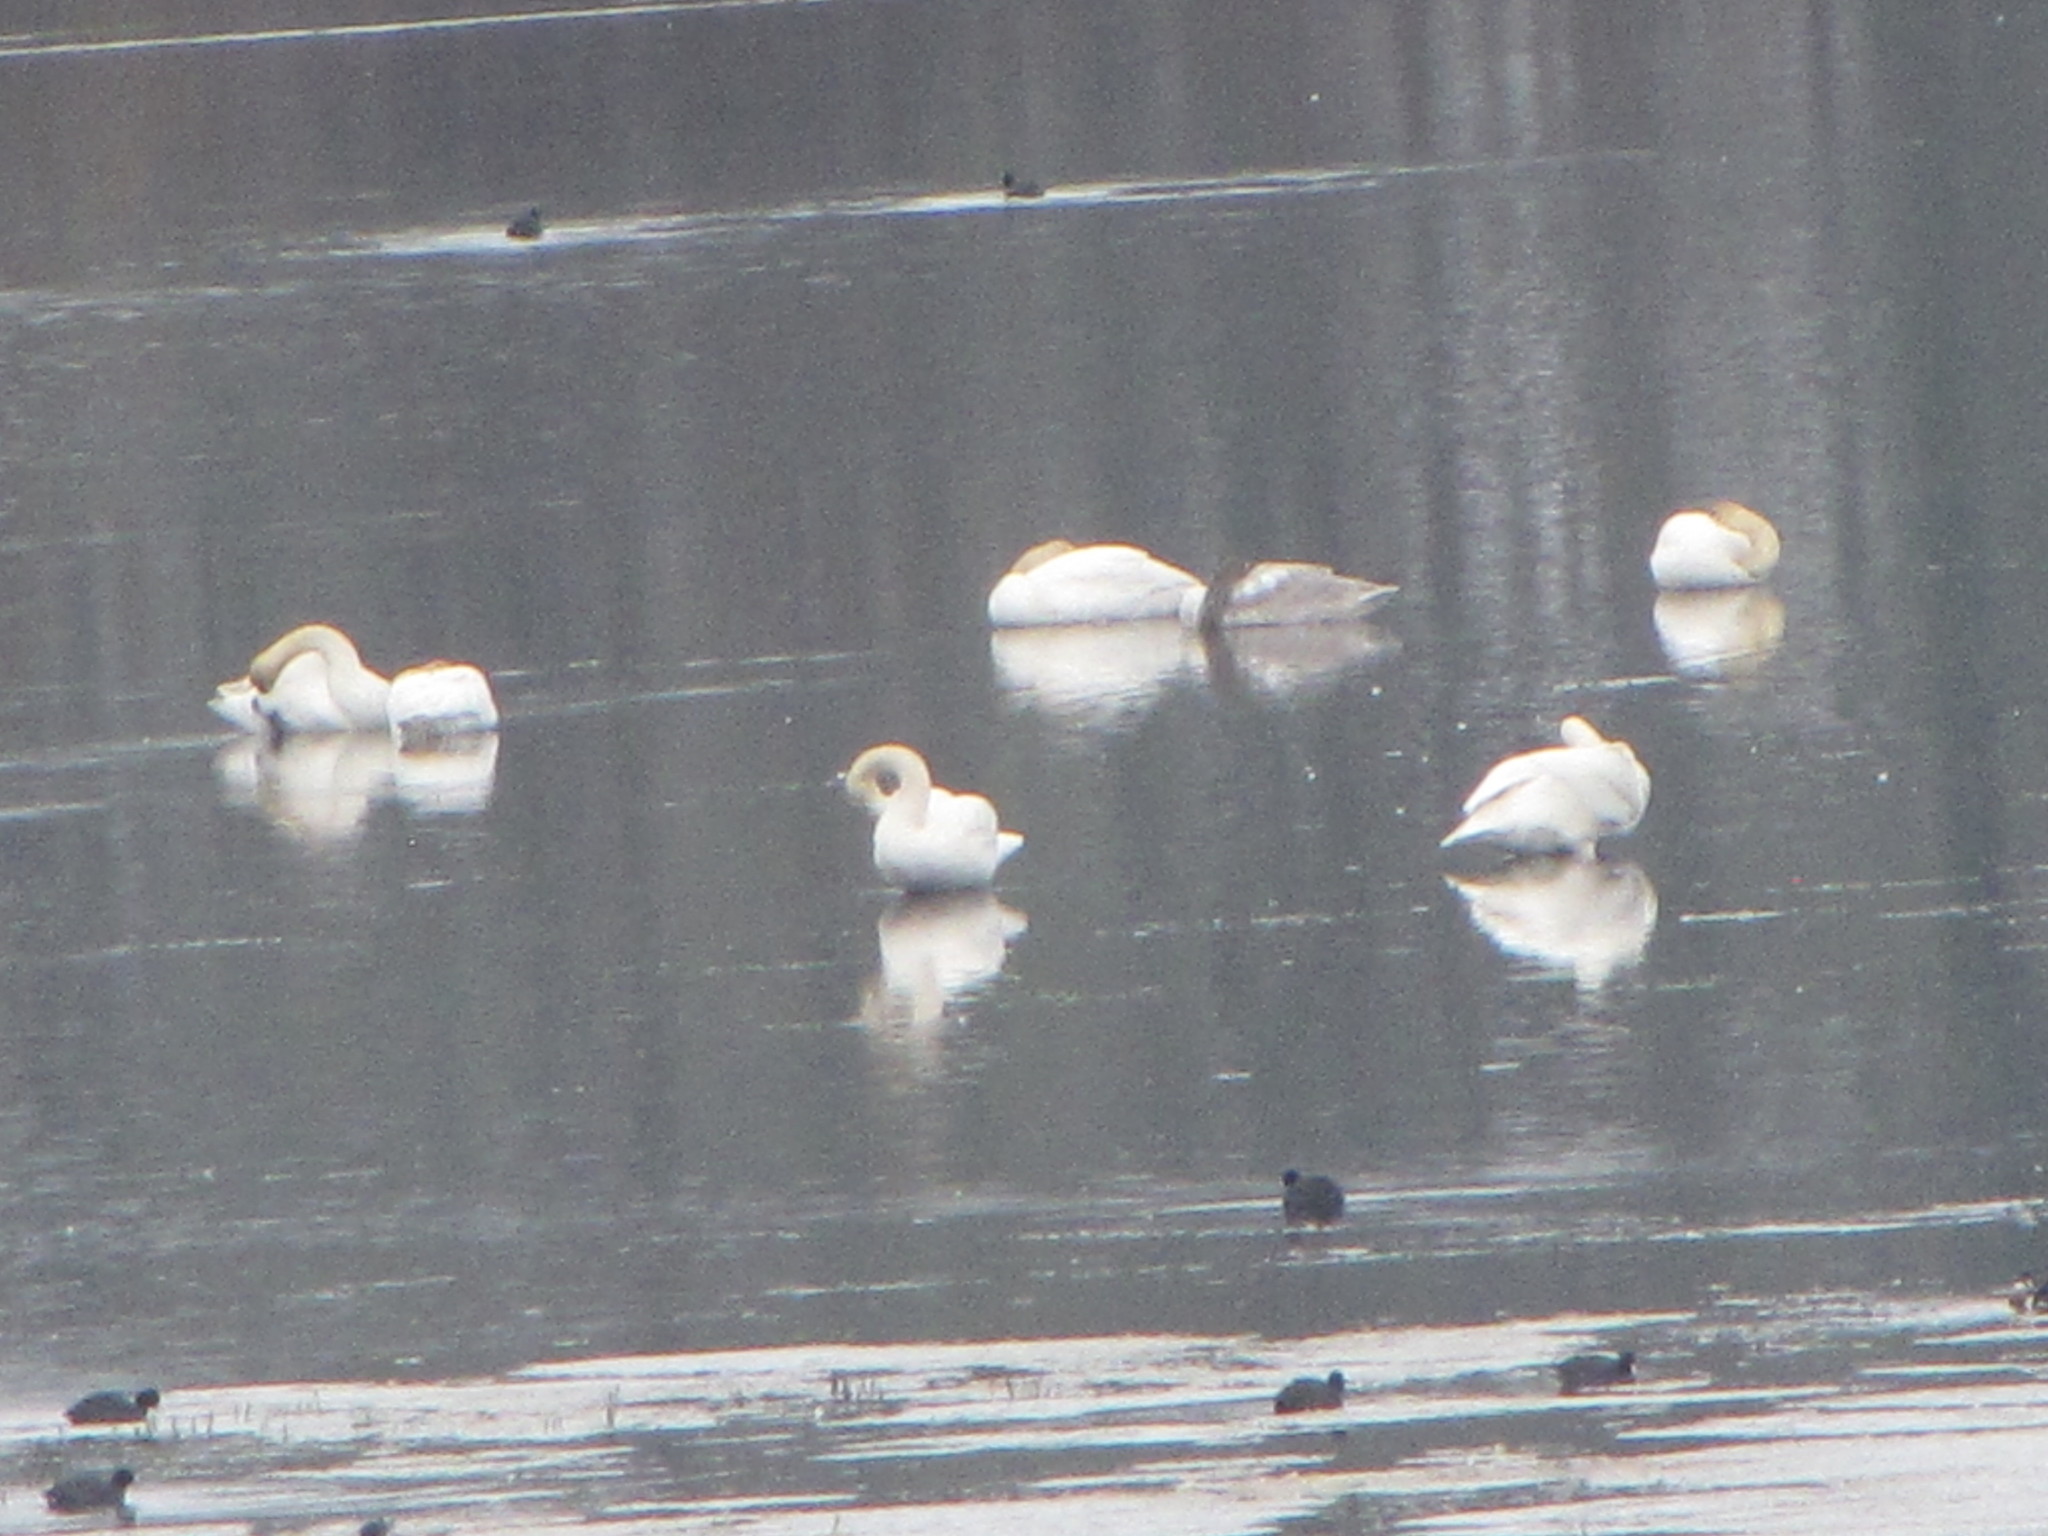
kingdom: Animalia
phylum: Chordata
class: Aves
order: Anseriformes
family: Anatidae
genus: Cygnus
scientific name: Cygnus buccinator
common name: Trumpeter swan
